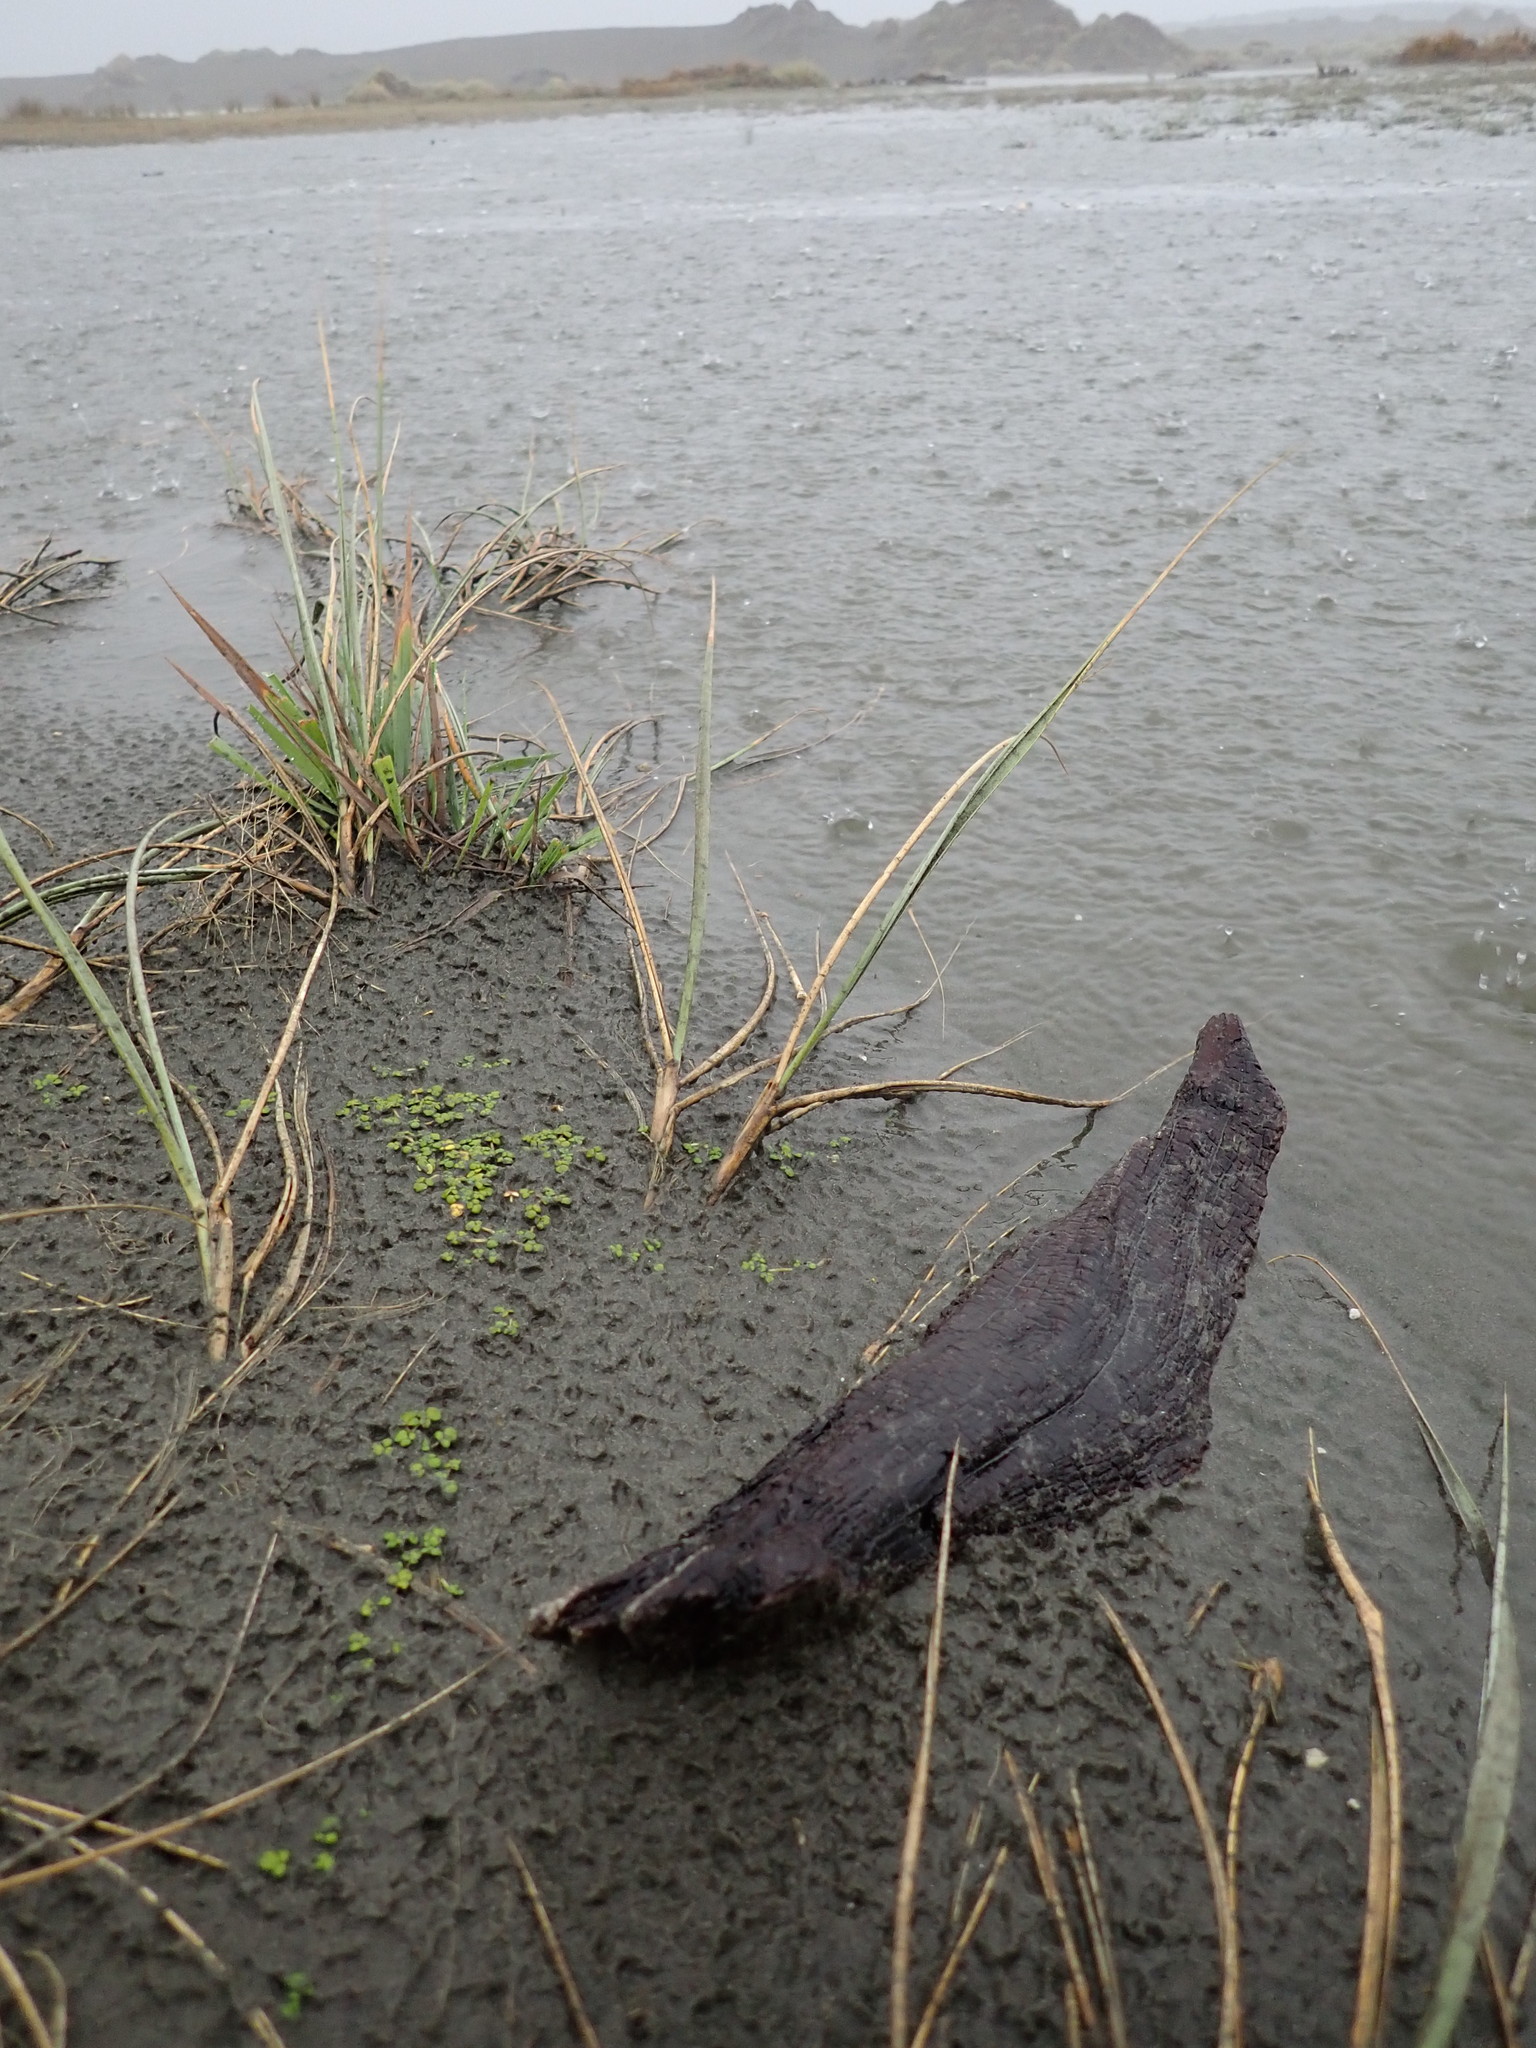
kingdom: Plantae
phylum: Tracheophyta
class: Magnoliopsida
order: Ranunculales
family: Ranunculaceae
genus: Ranunculus
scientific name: Ranunculus acaulis
